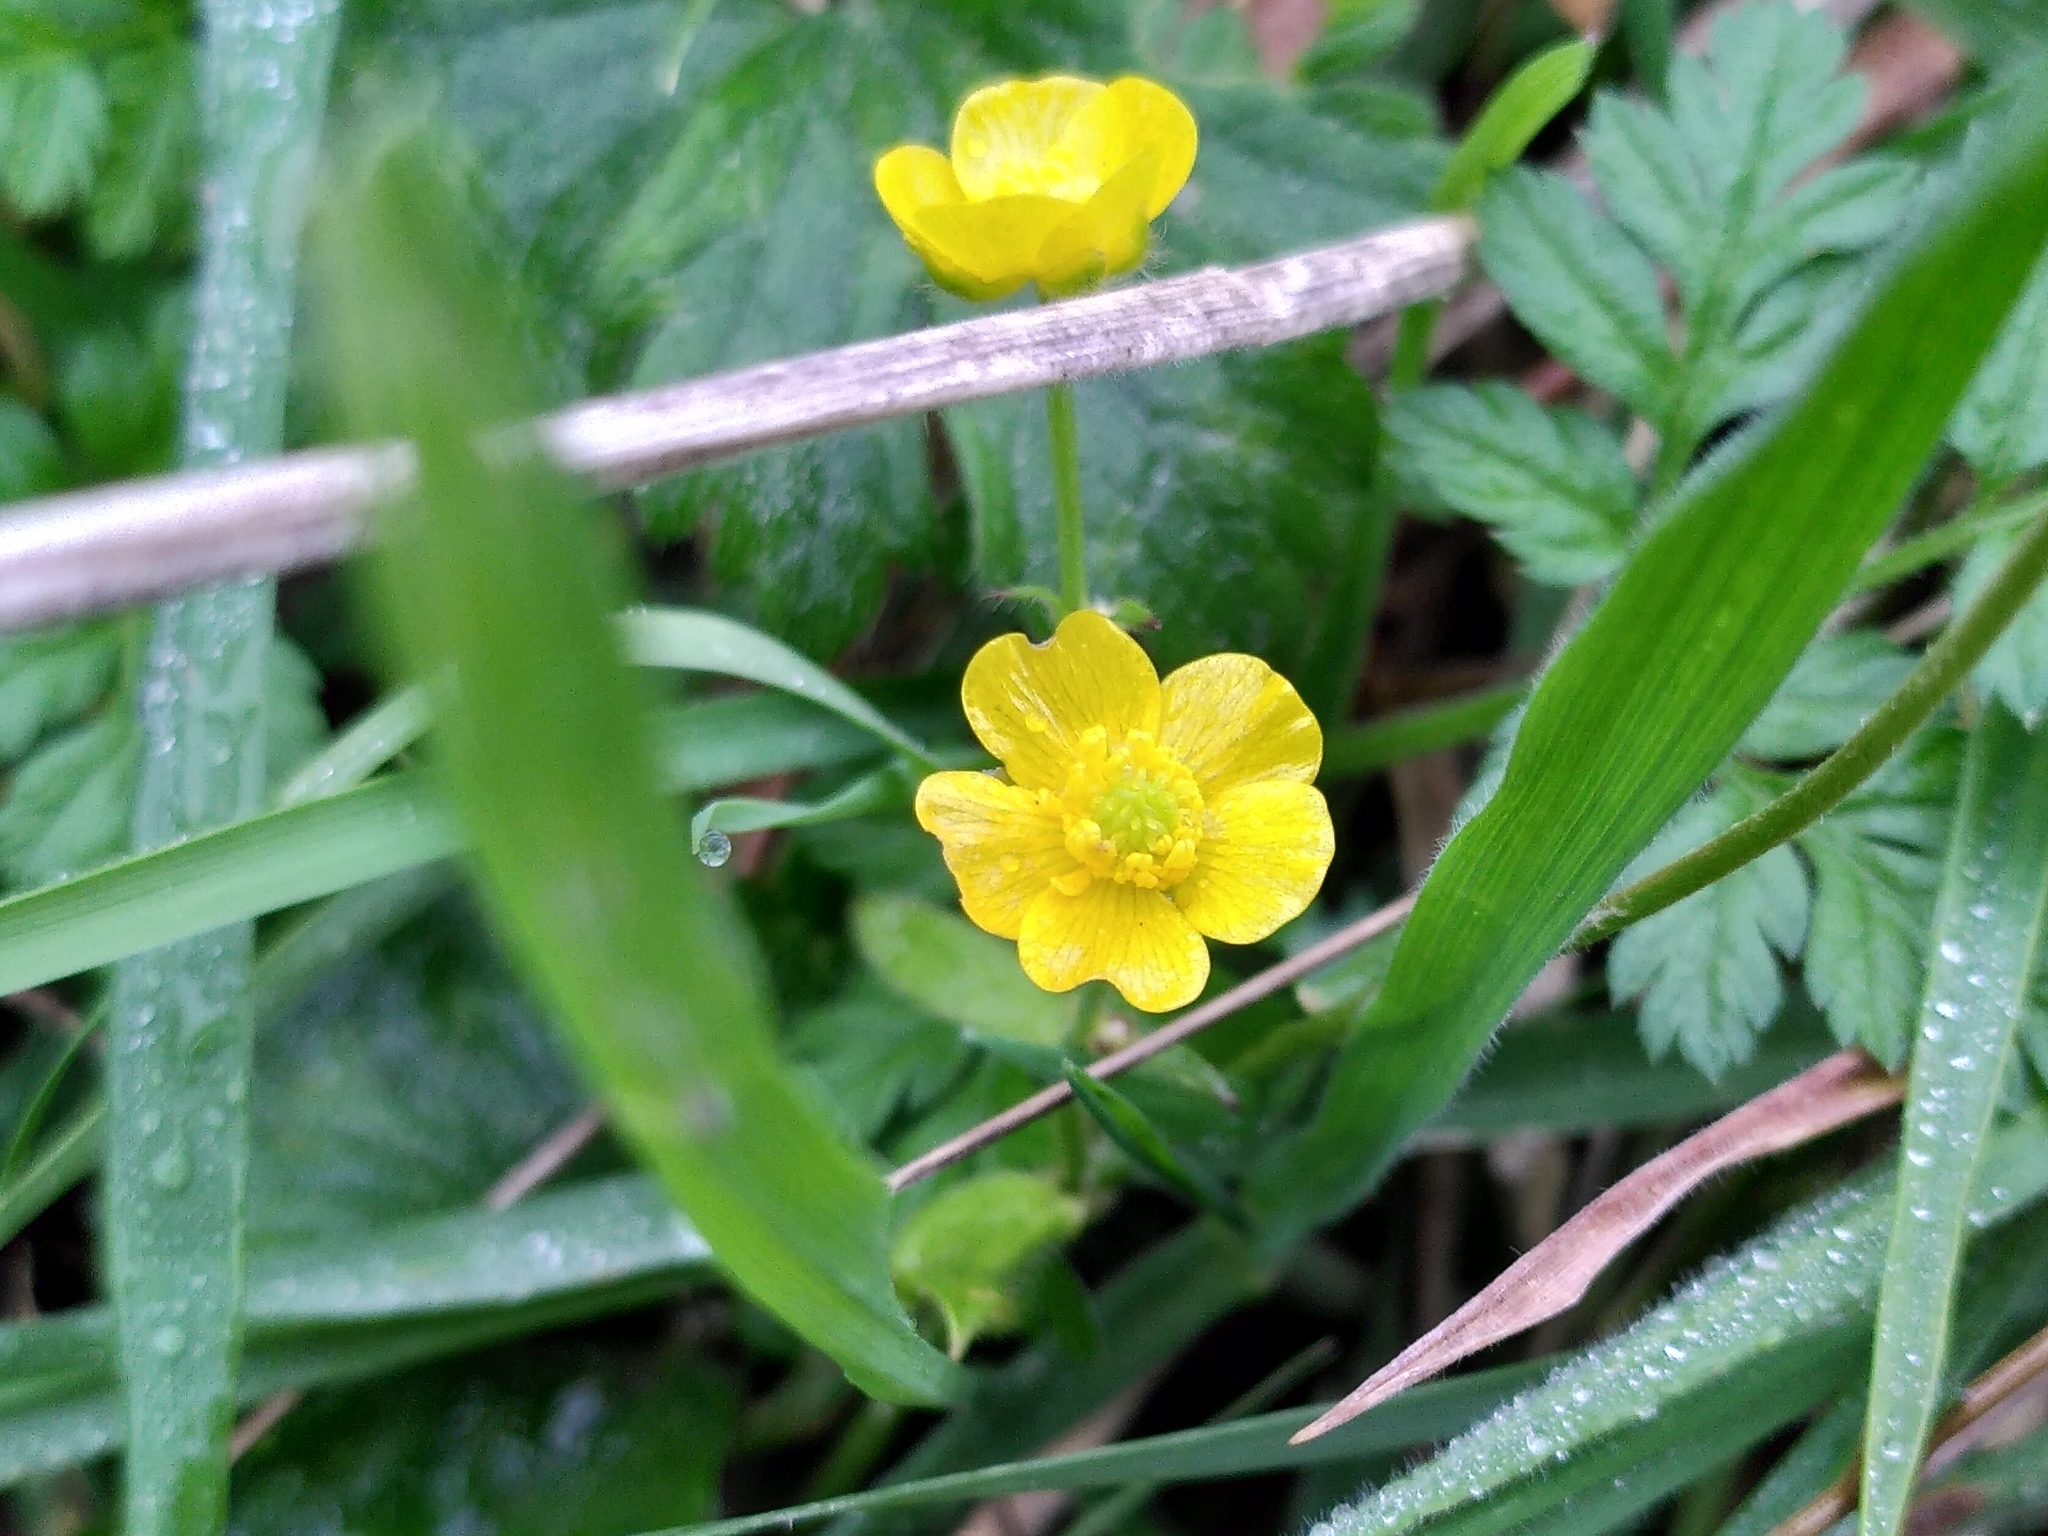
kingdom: Plantae
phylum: Tracheophyta
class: Magnoliopsida
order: Ranunculales
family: Ranunculaceae
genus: Ranunculus
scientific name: Ranunculus repens
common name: Creeping buttercup
